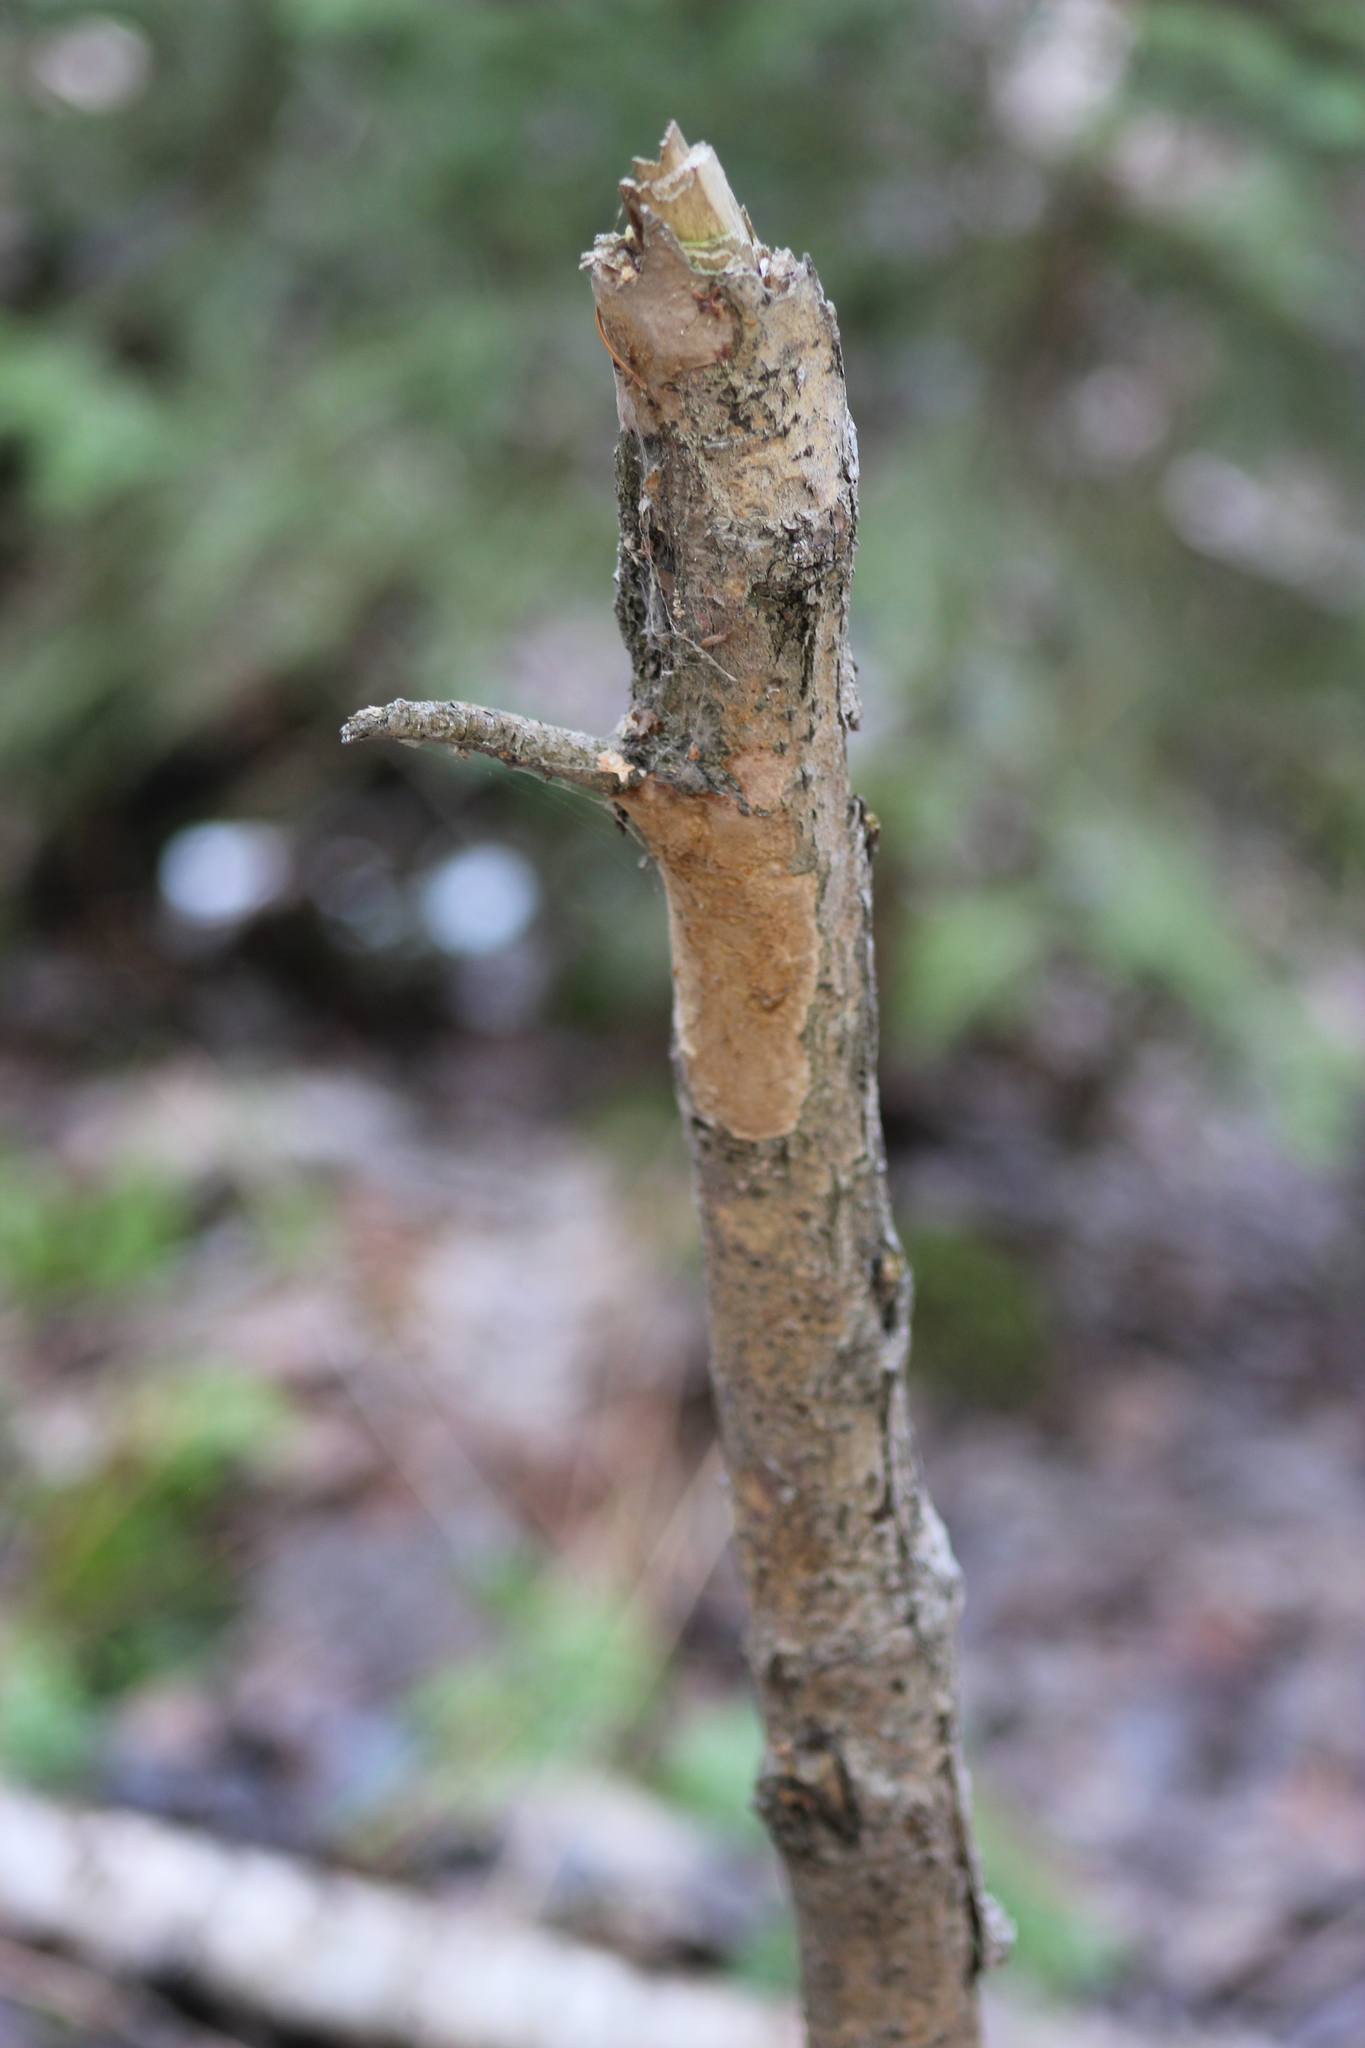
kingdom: Fungi
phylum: Basidiomycota
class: Agaricomycetes
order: Hymenochaetales
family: Hymenochaetaceae
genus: Fomitiporia
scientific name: Fomitiporia punctata
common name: Elbowpatch crust
